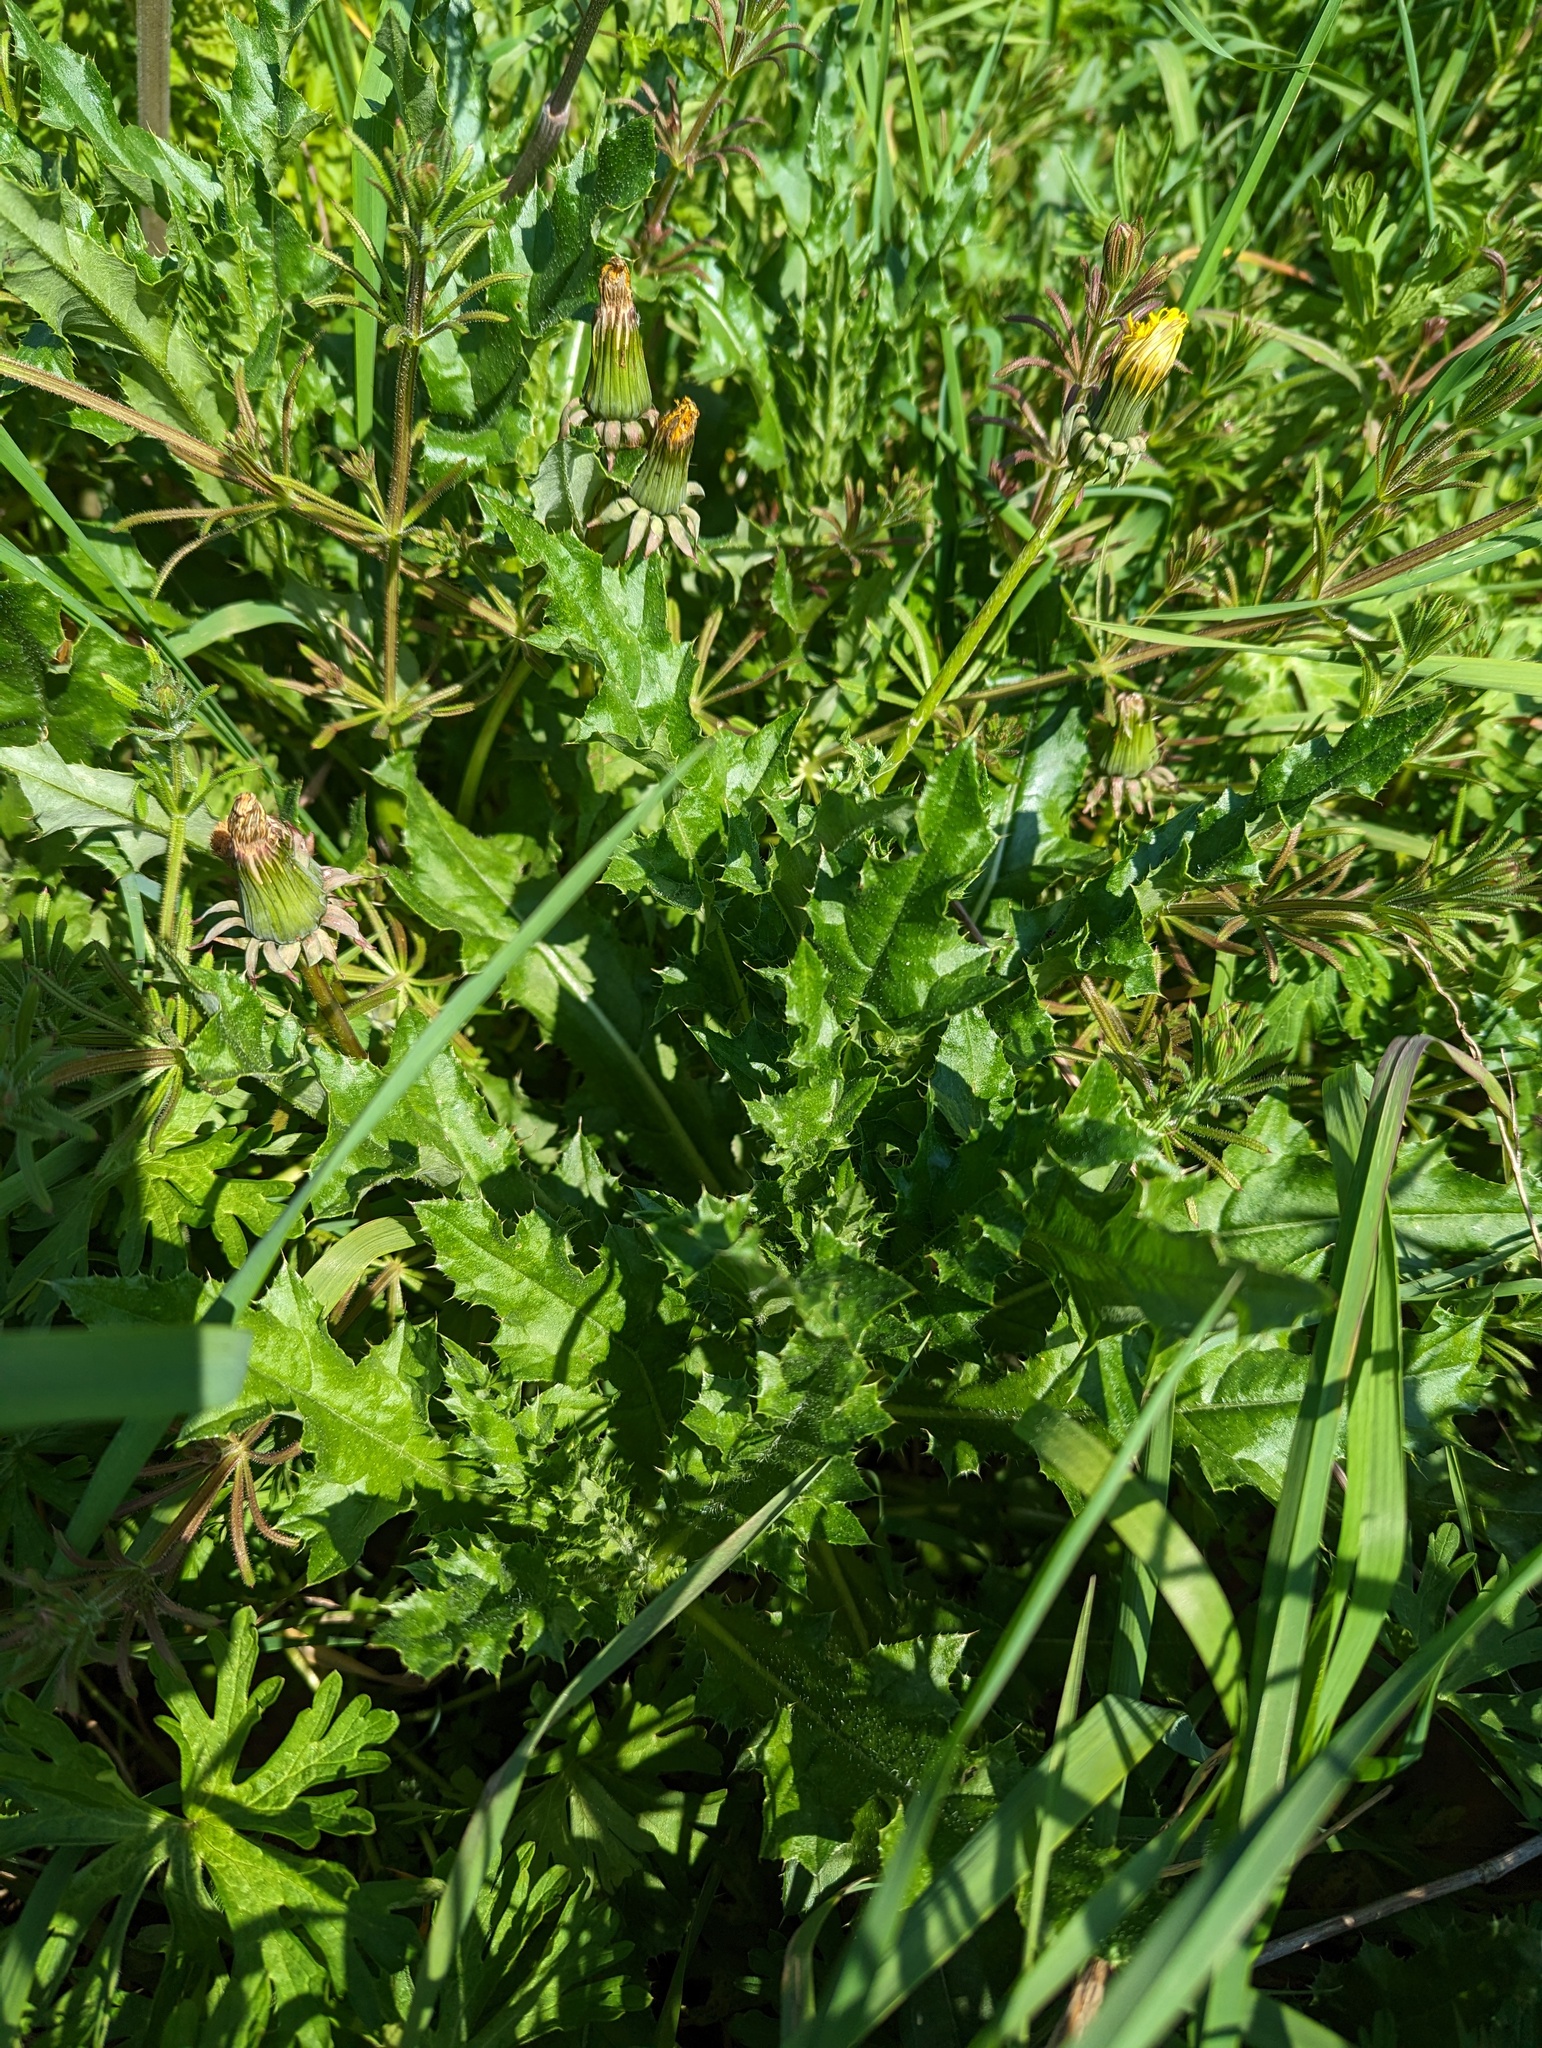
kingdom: Plantae
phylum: Tracheophyta
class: Magnoliopsida
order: Asterales
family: Asteraceae
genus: Cirsium
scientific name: Cirsium arvense
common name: Creeping thistle
